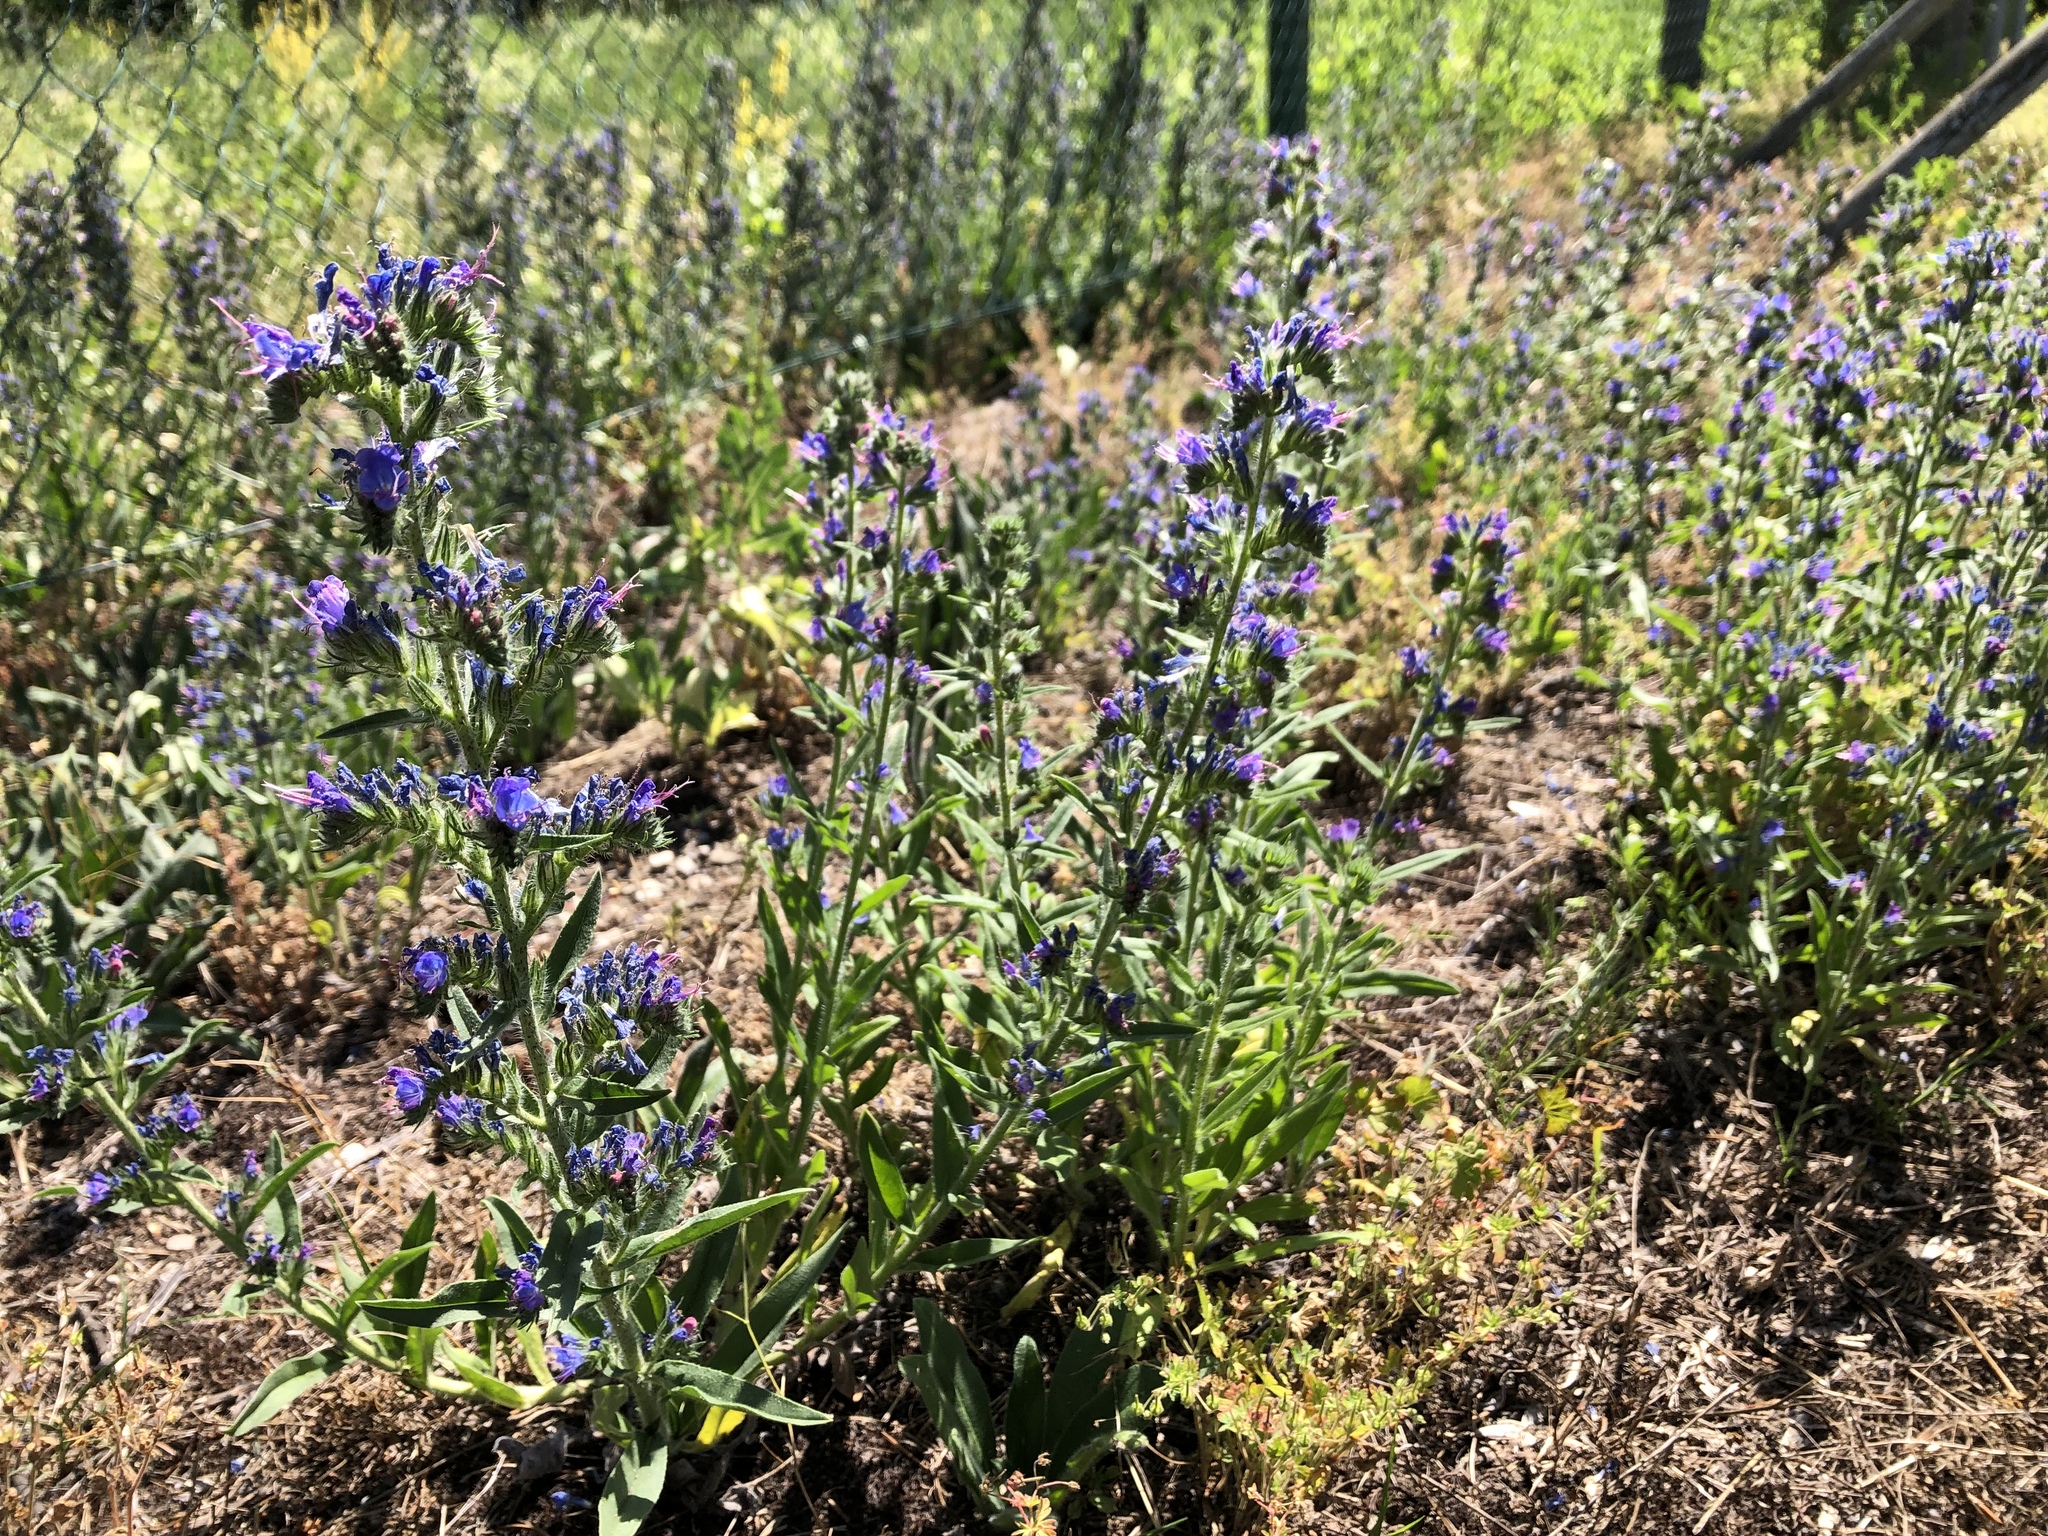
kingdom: Plantae
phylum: Tracheophyta
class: Magnoliopsida
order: Boraginales
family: Boraginaceae
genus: Echium
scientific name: Echium vulgare
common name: Common viper's bugloss
